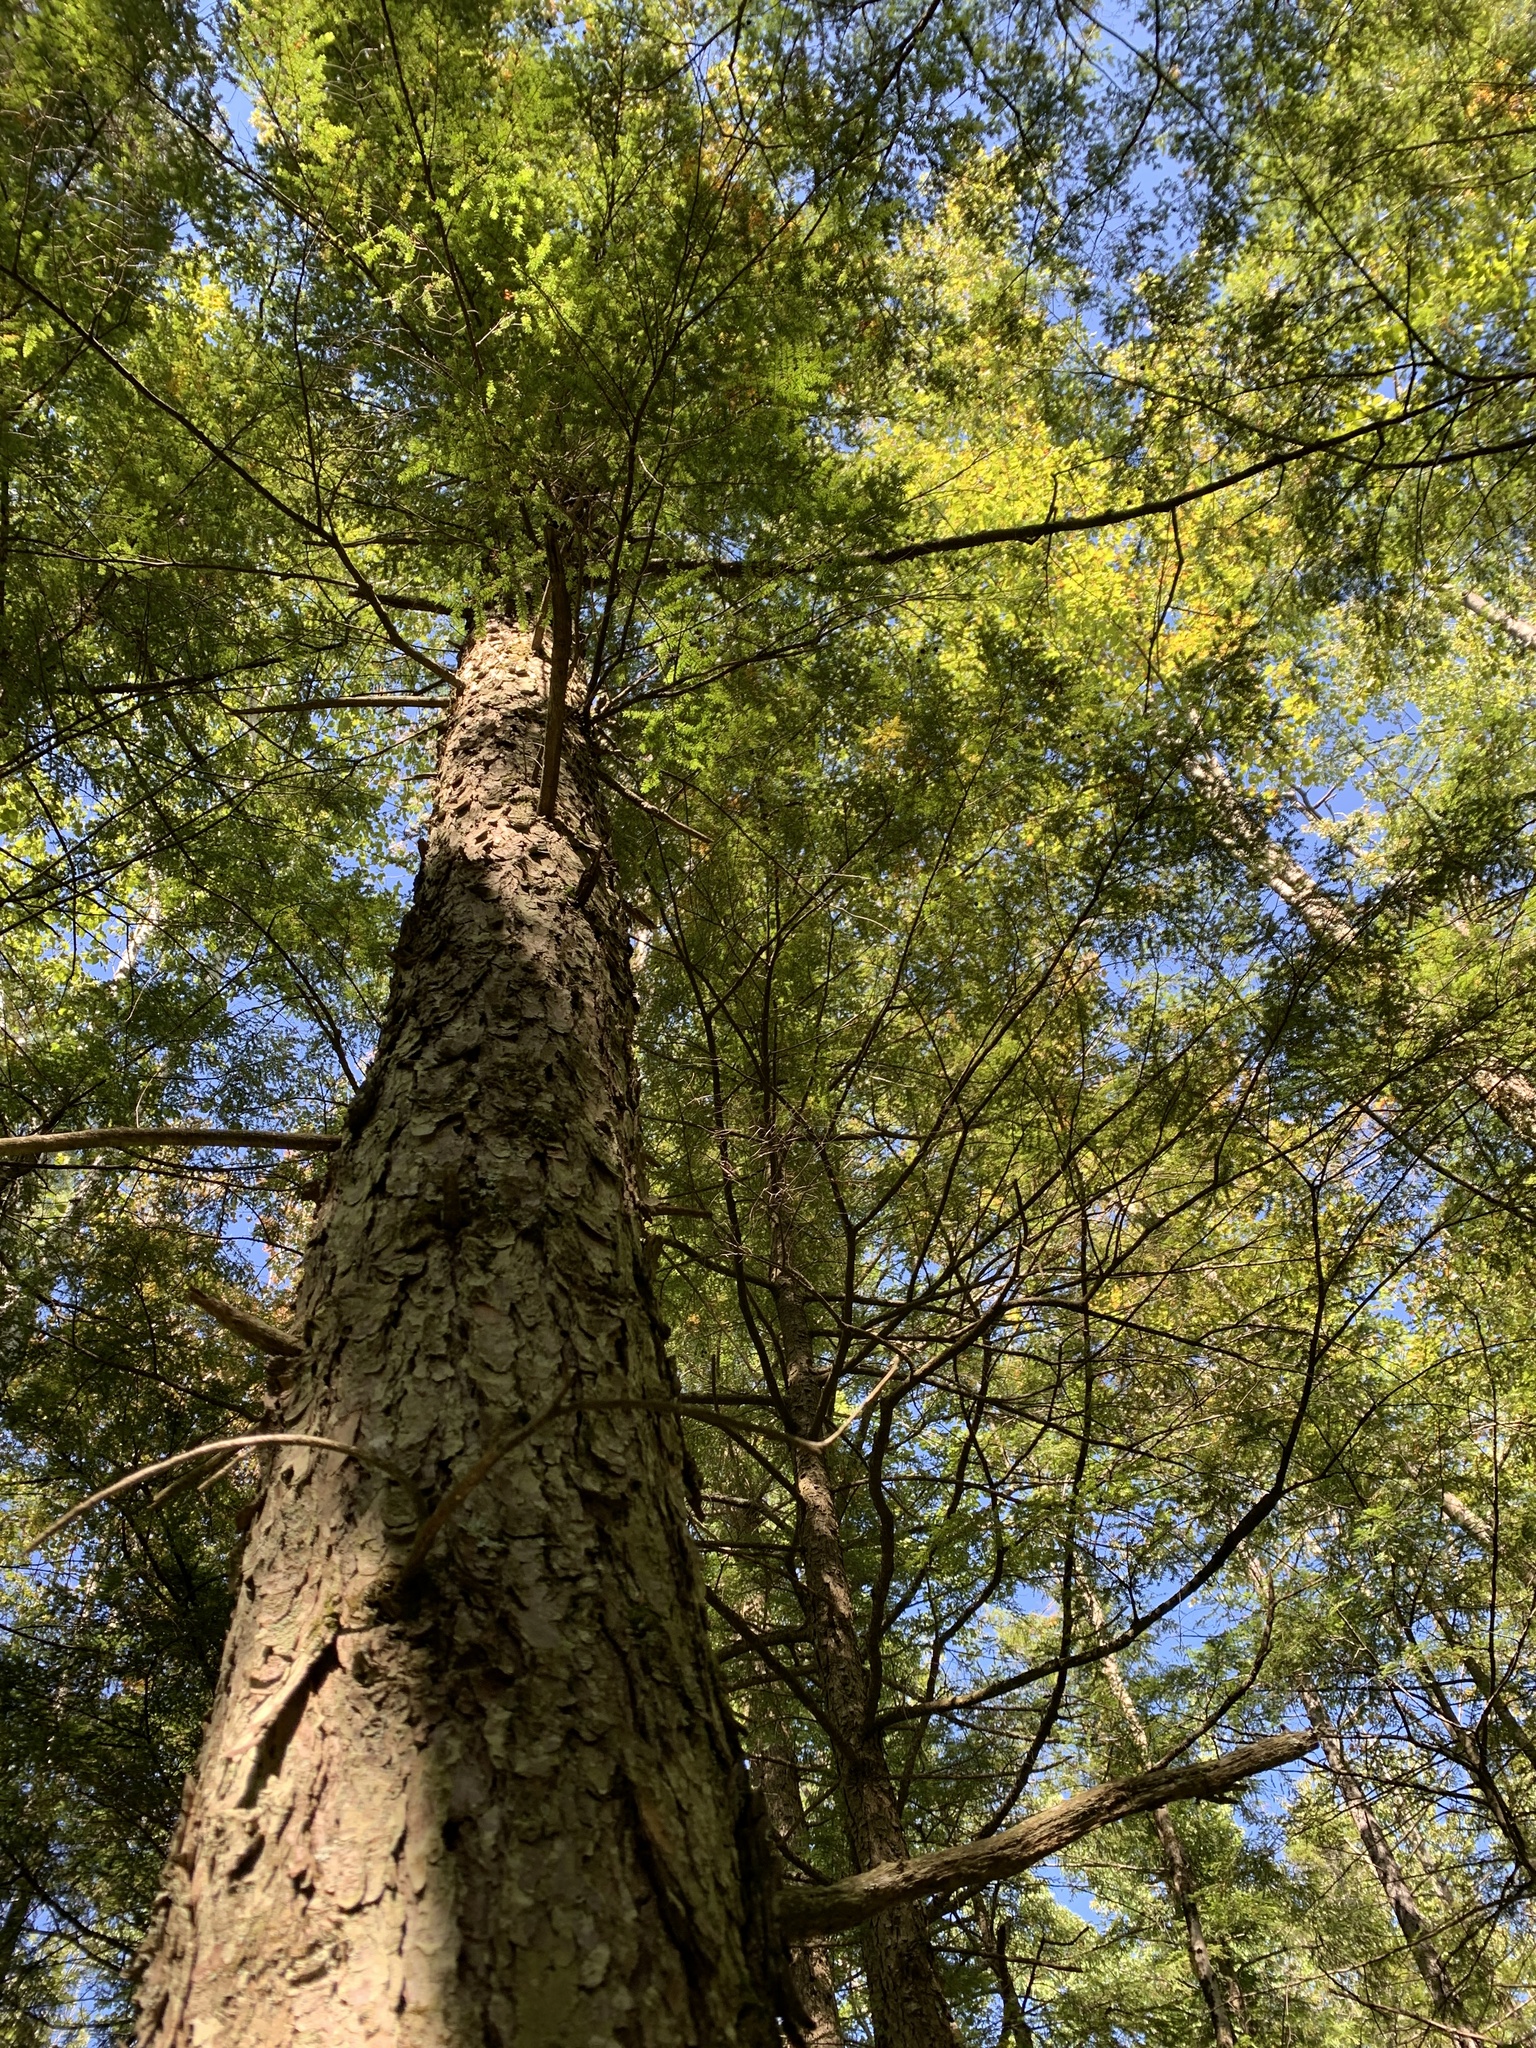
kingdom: Plantae
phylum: Tracheophyta
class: Pinopsida
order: Pinales
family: Pinaceae
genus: Tsuga
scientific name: Tsuga canadensis
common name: Eastern hemlock
